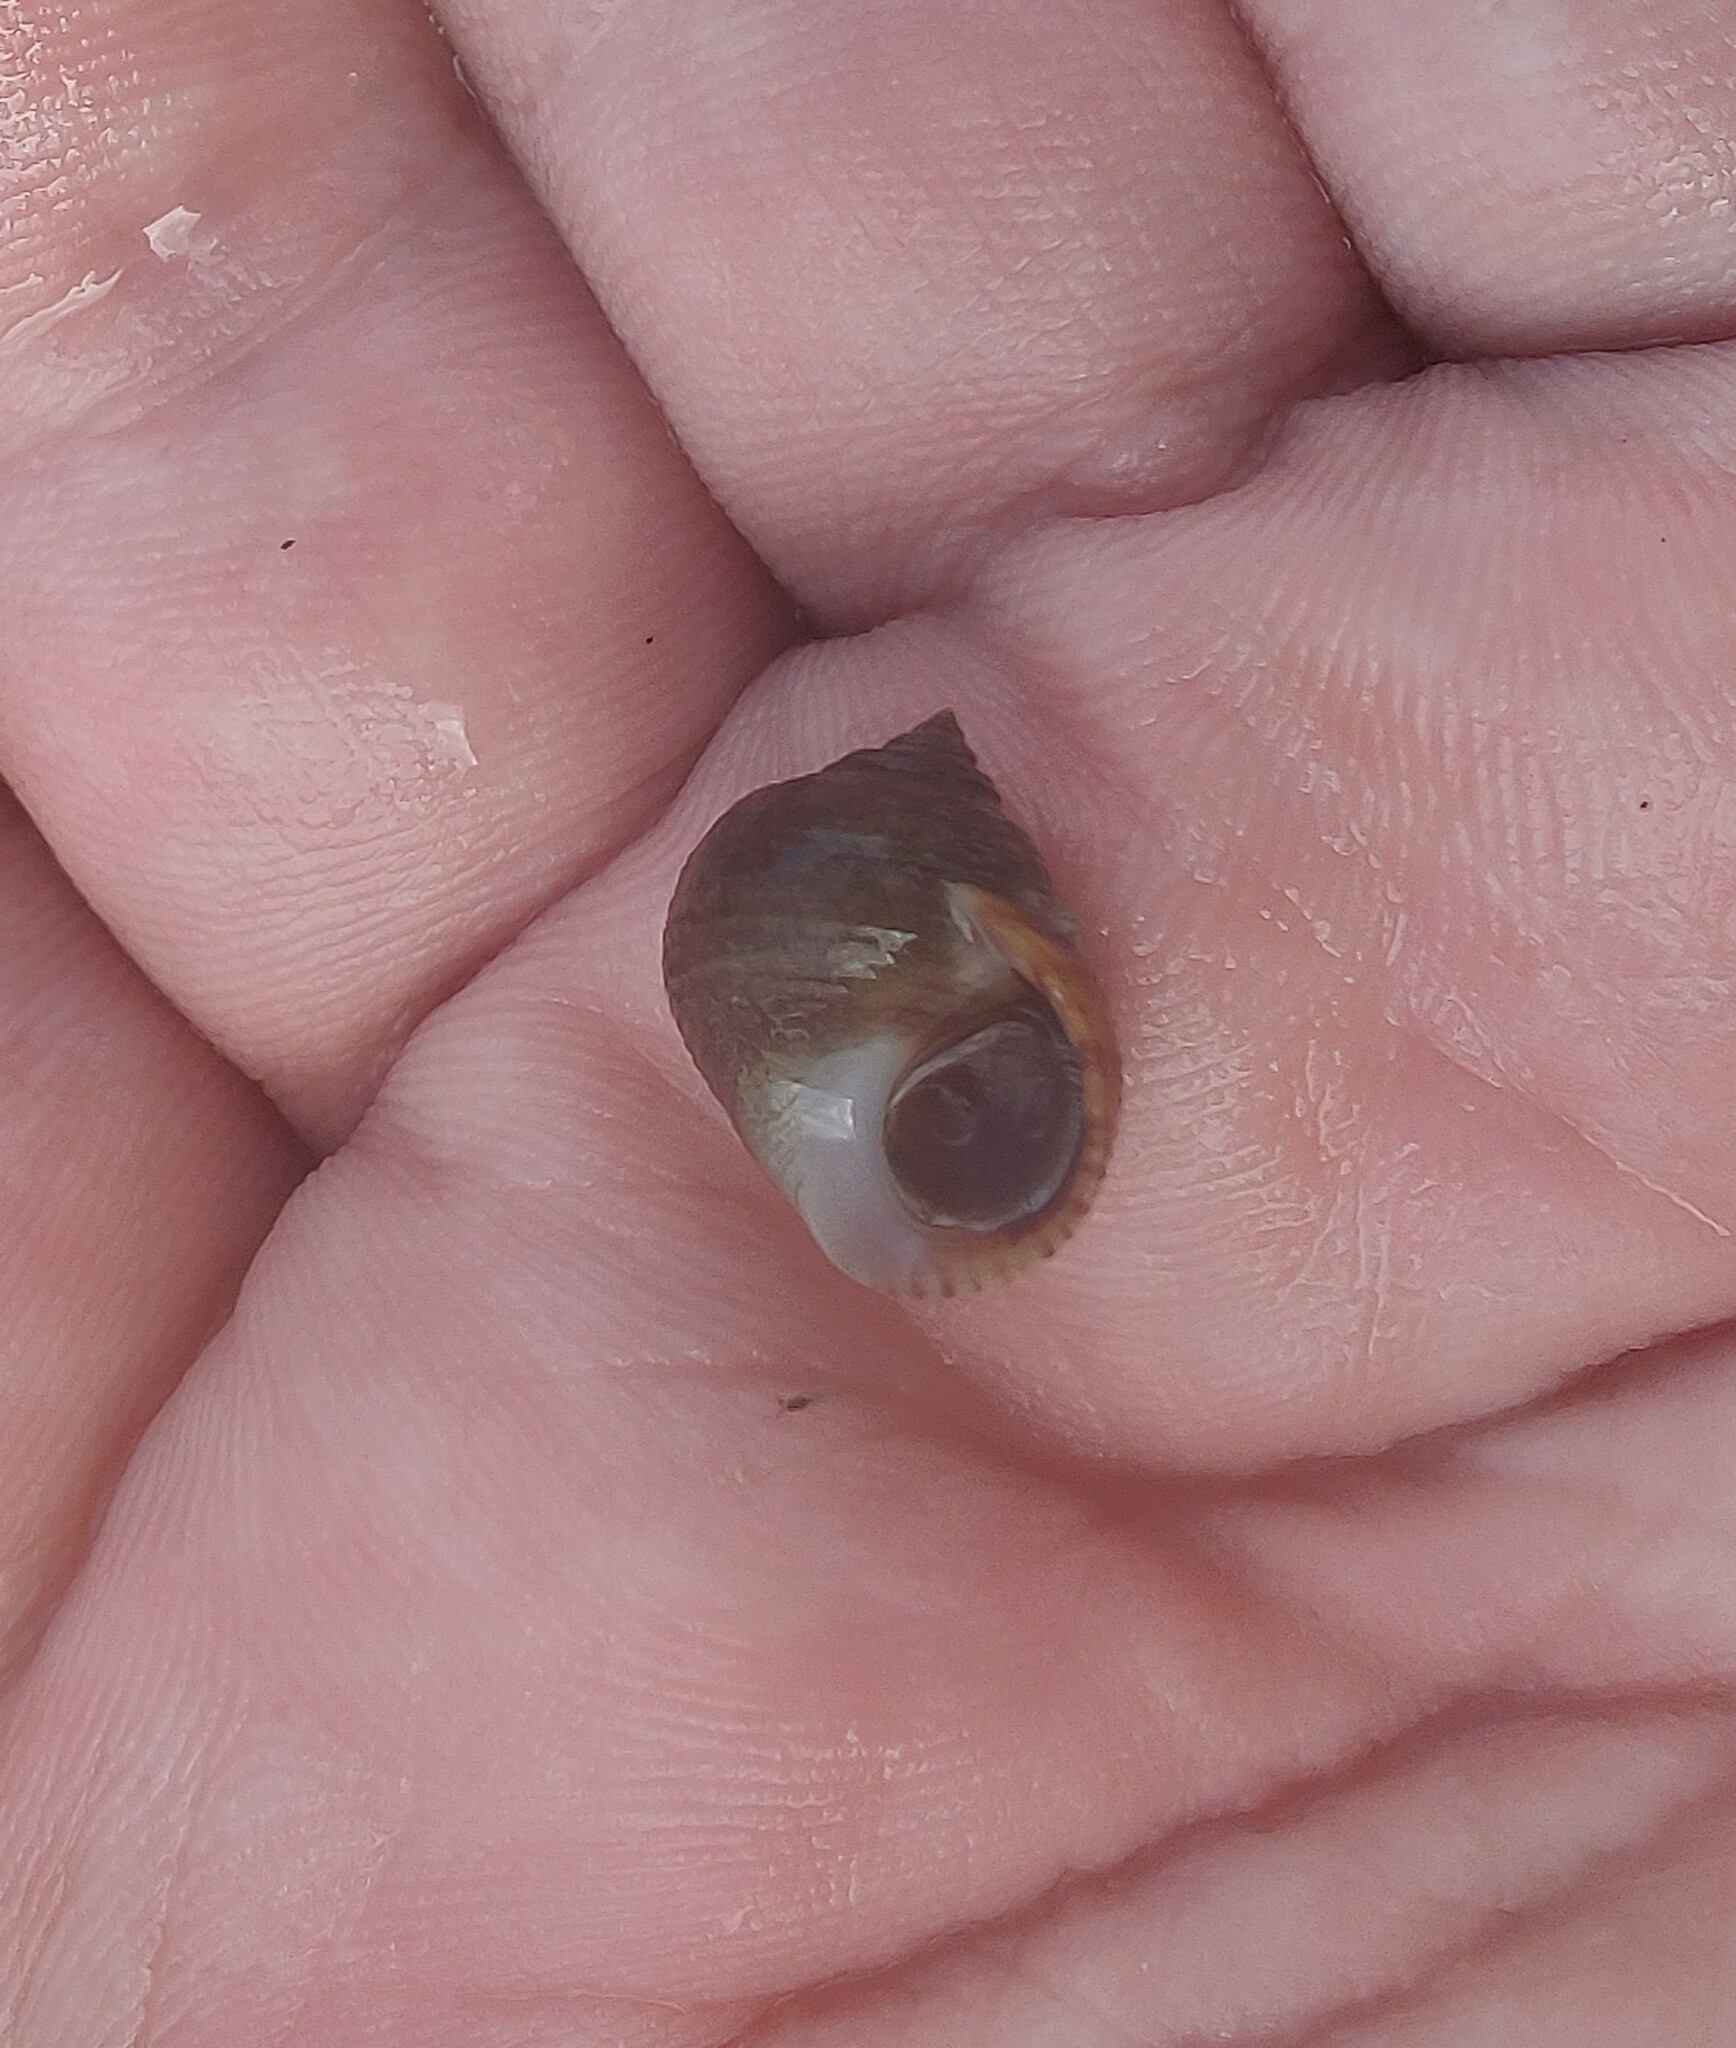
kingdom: Animalia
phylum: Mollusca
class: Gastropoda
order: Littorinimorpha
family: Littorinidae
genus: Littorina
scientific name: Littorina littorea
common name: Common periwinkle
